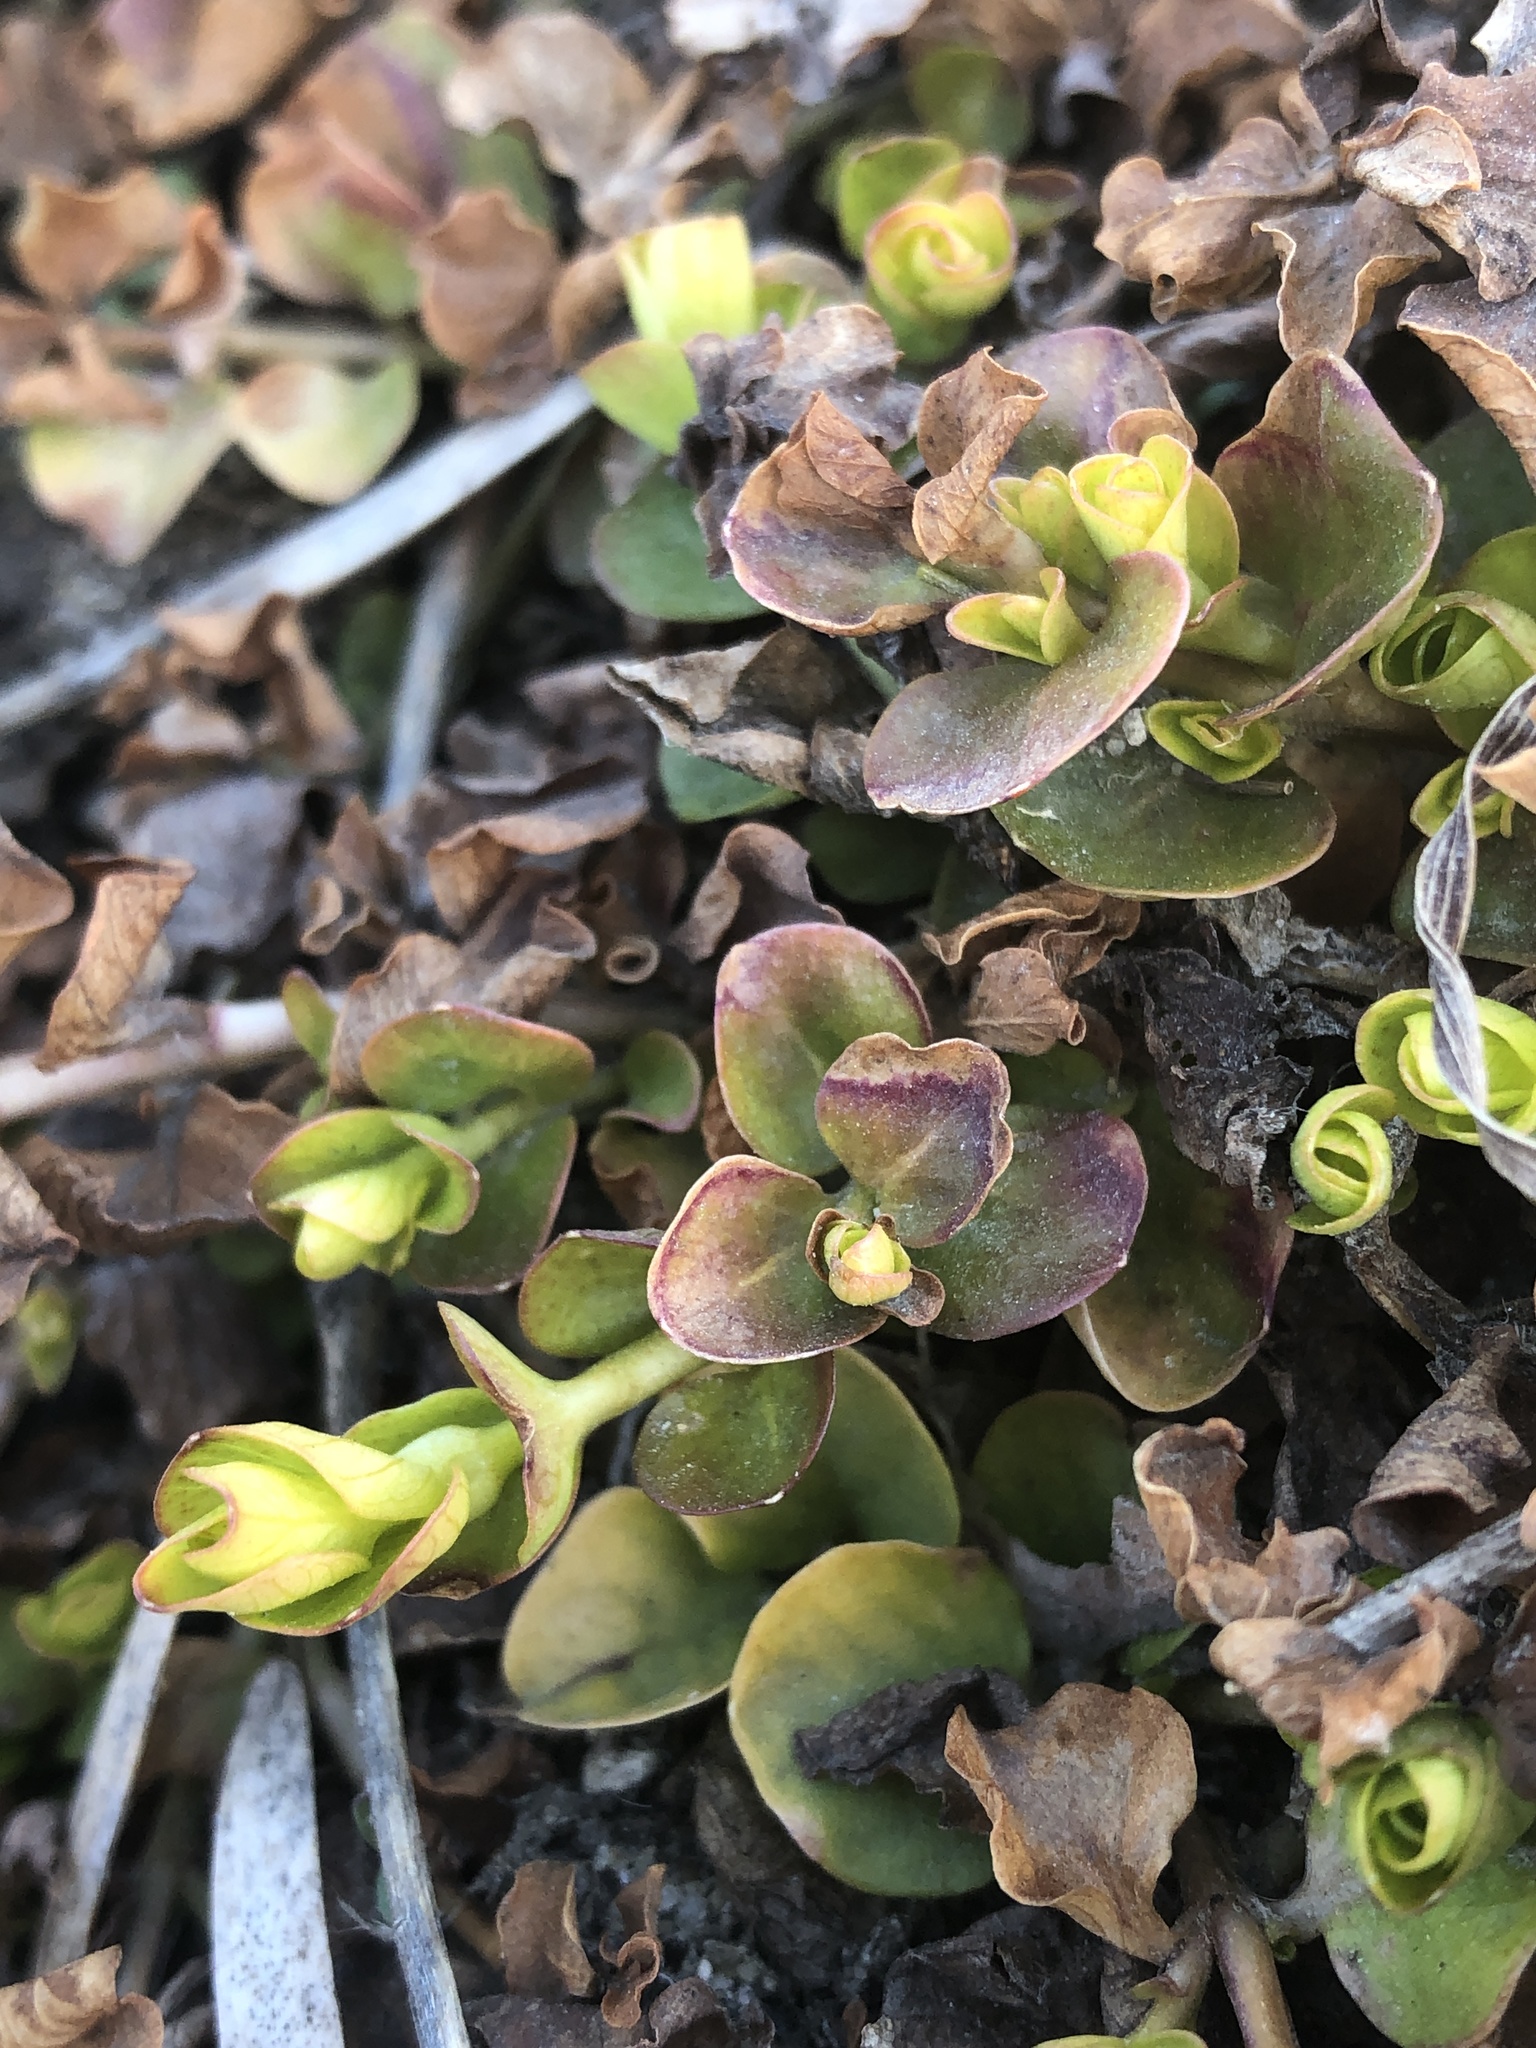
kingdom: Plantae
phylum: Tracheophyta
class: Magnoliopsida
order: Ericales
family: Primulaceae
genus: Lysimachia
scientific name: Lysimachia nummularia
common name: Moneywort
